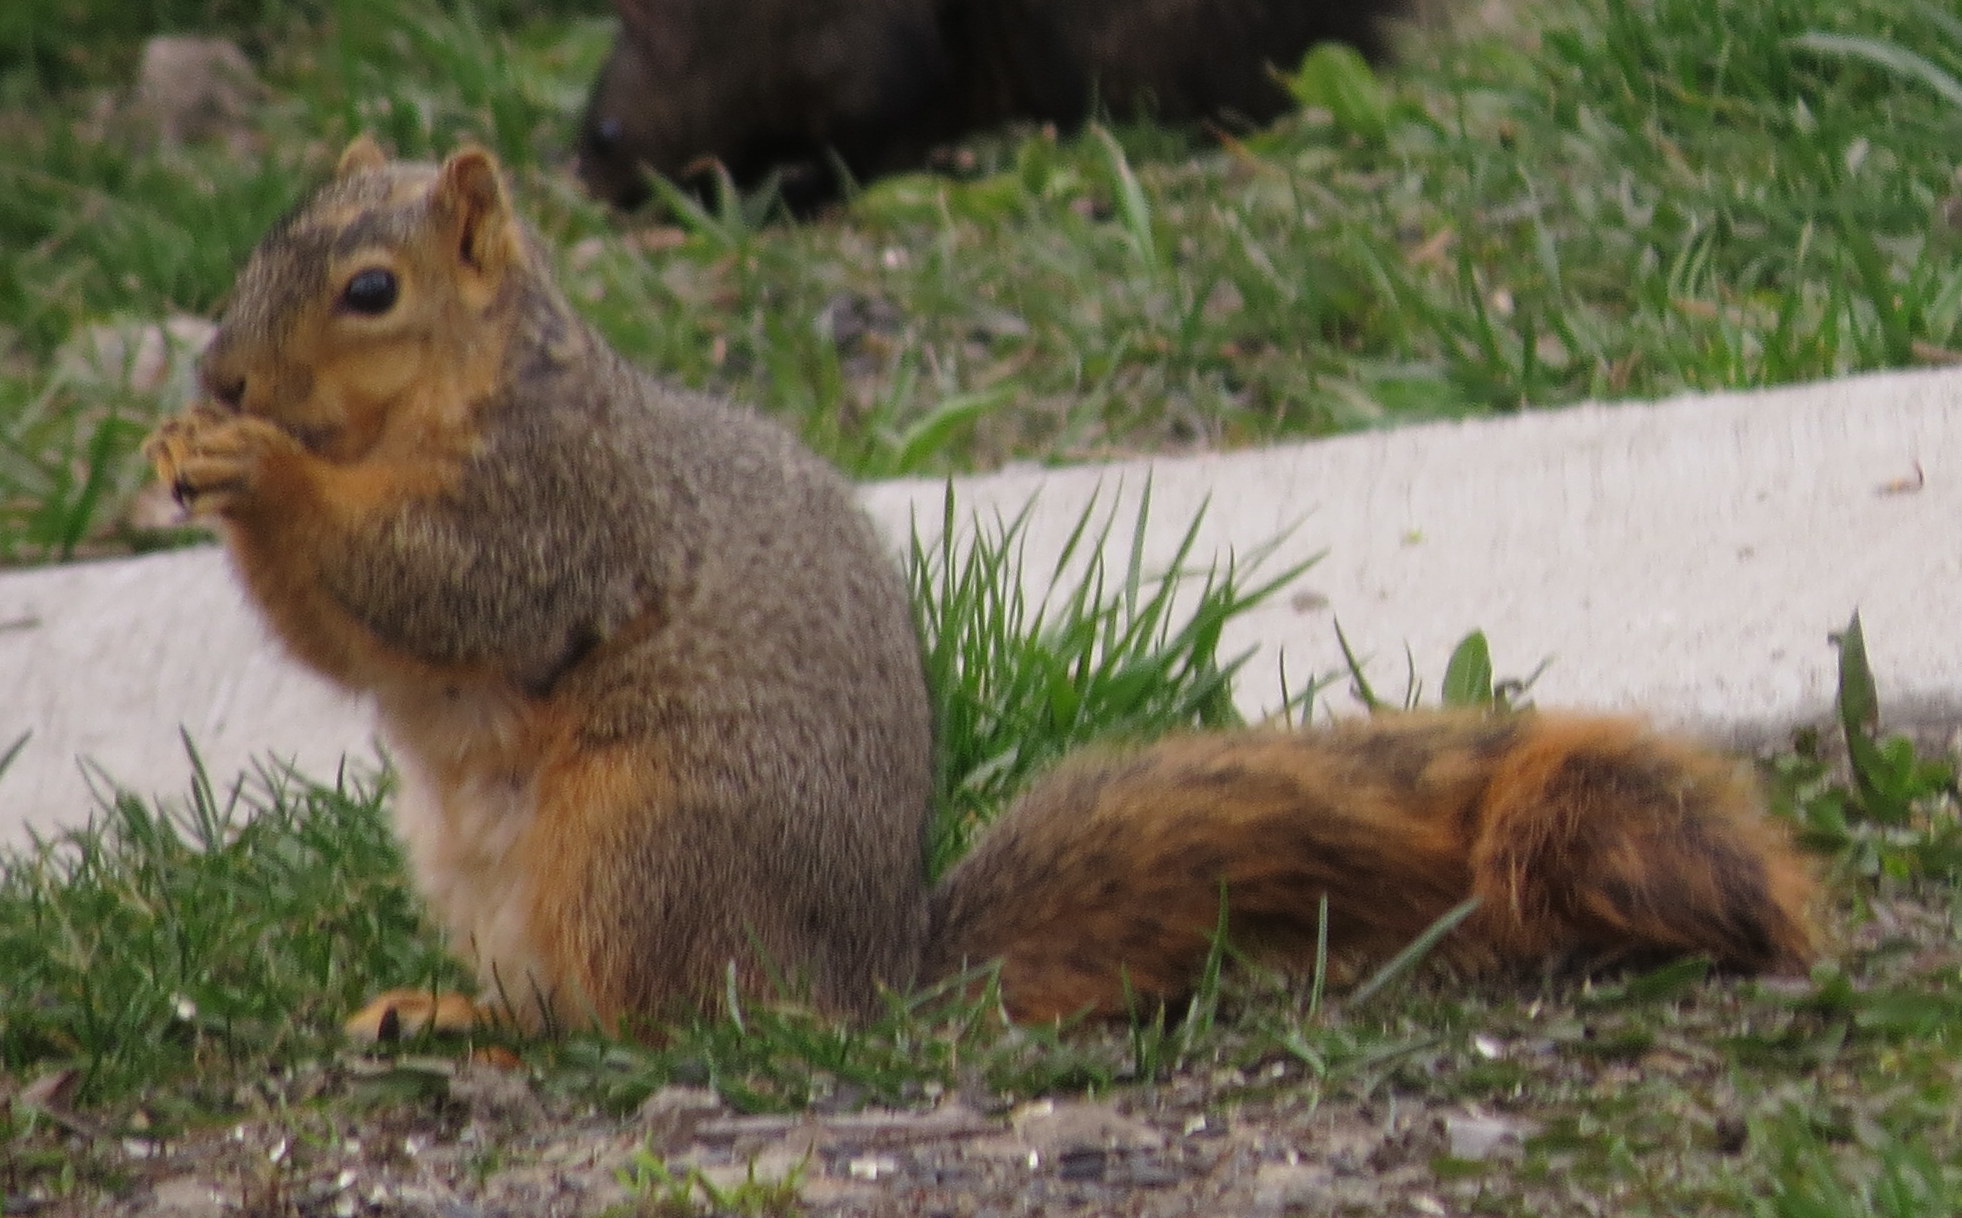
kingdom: Animalia
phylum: Chordata
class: Mammalia
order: Rodentia
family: Sciuridae
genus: Sciurus
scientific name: Sciurus niger
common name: Fox squirrel
